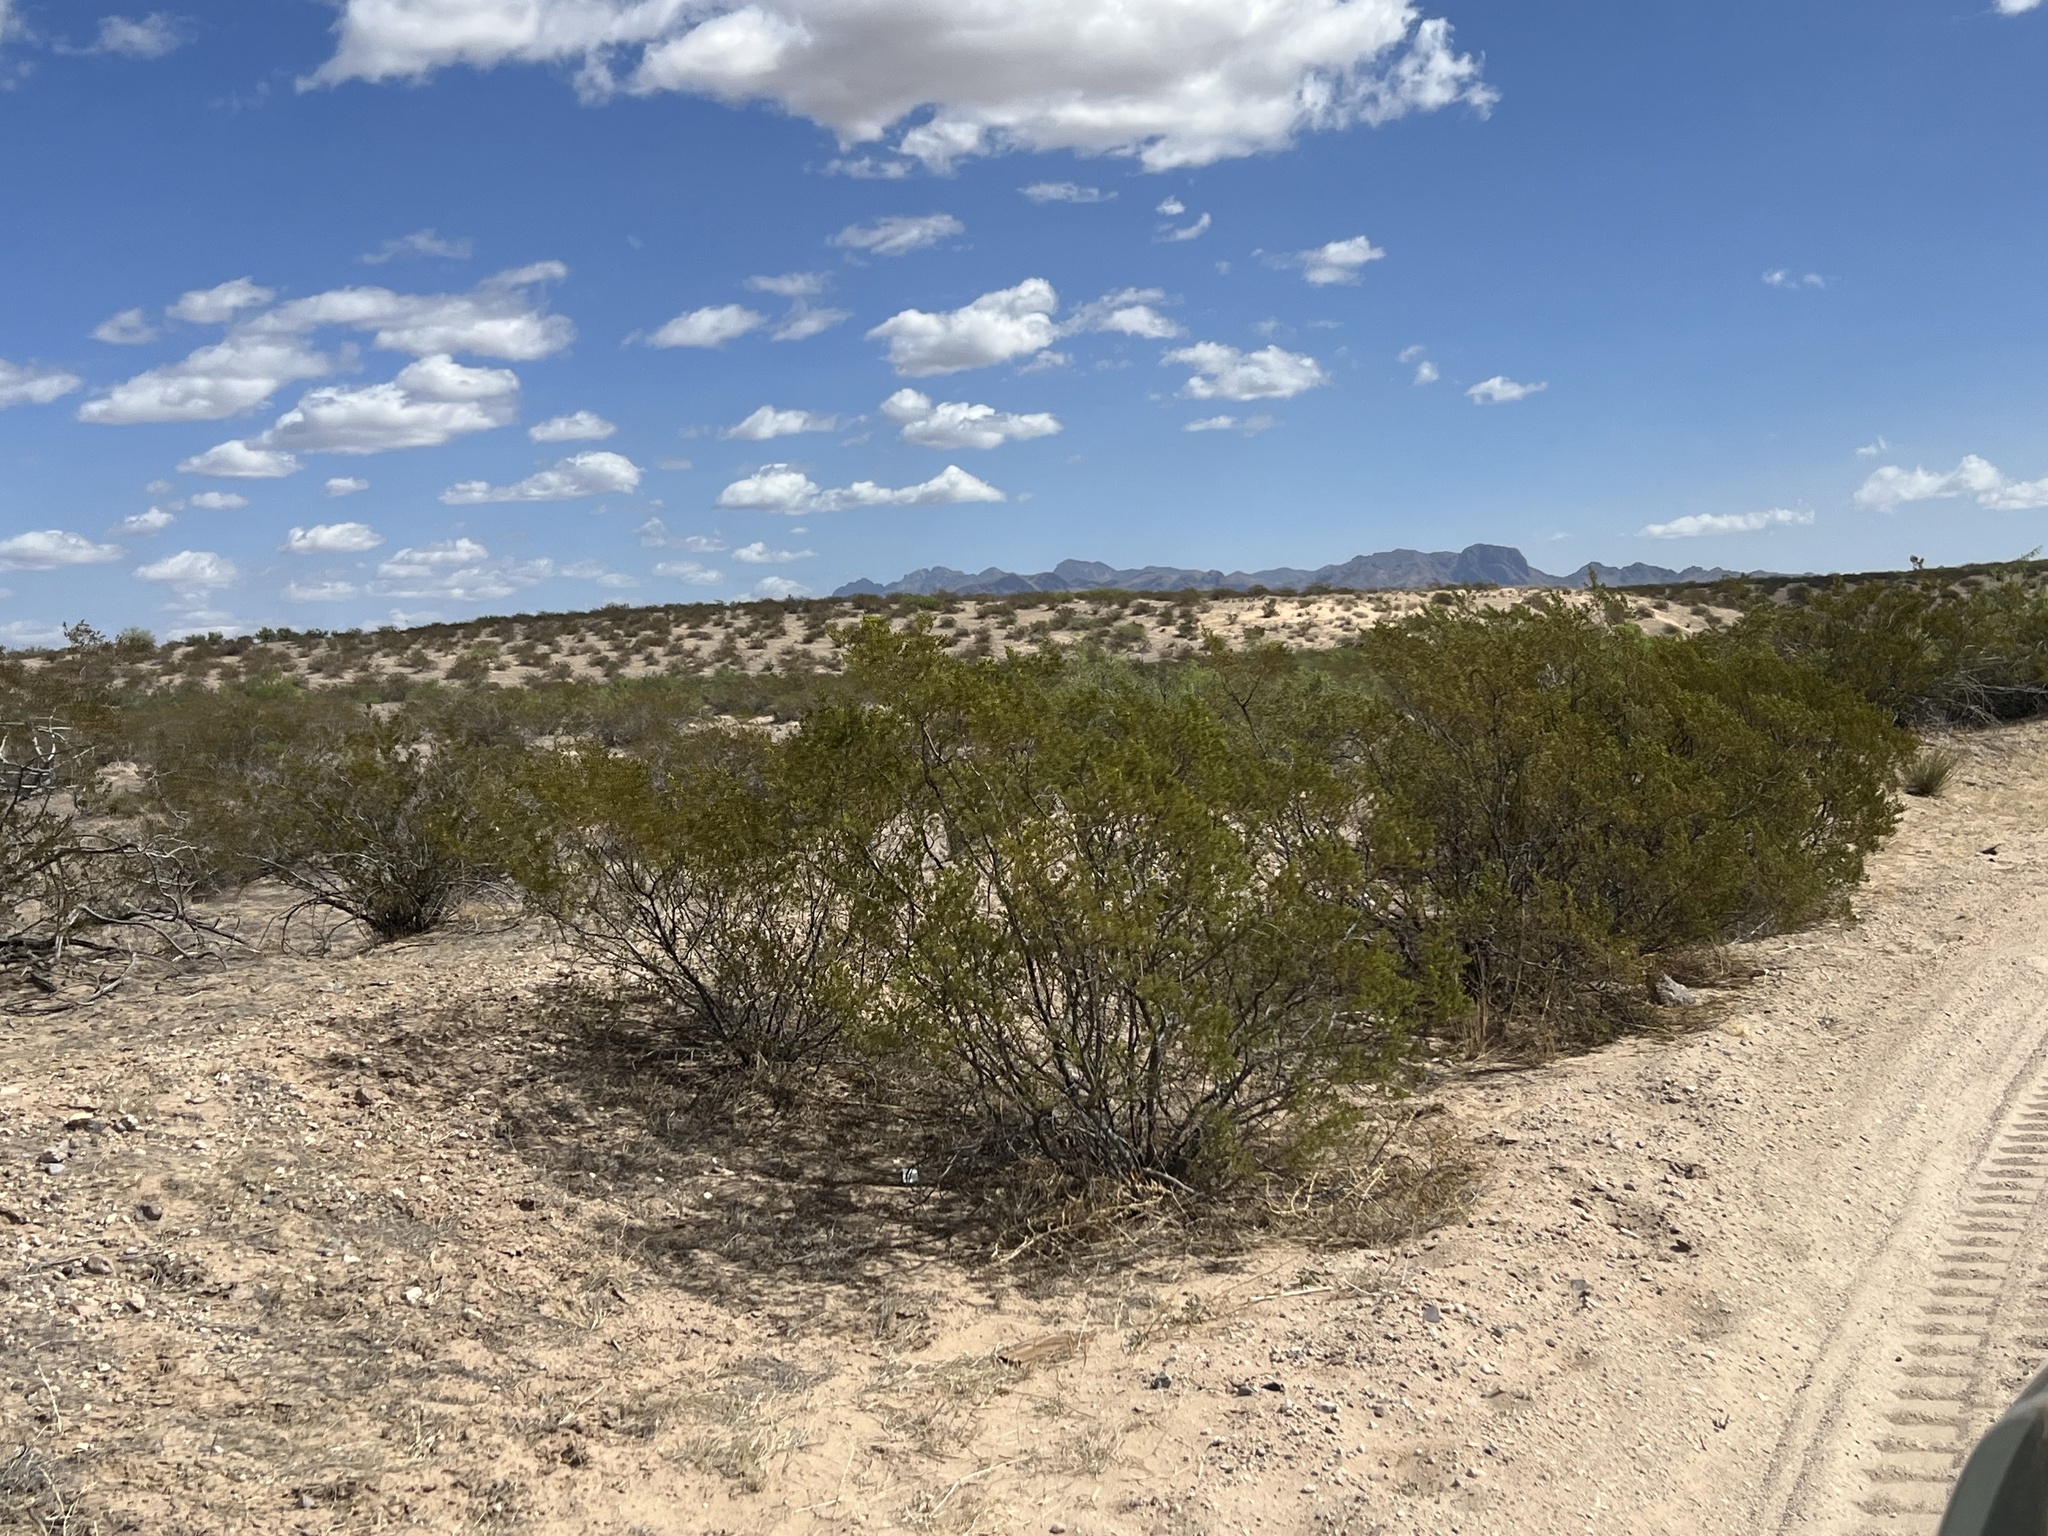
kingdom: Plantae
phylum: Tracheophyta
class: Magnoliopsida
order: Zygophyllales
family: Zygophyllaceae
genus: Larrea
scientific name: Larrea tridentata
